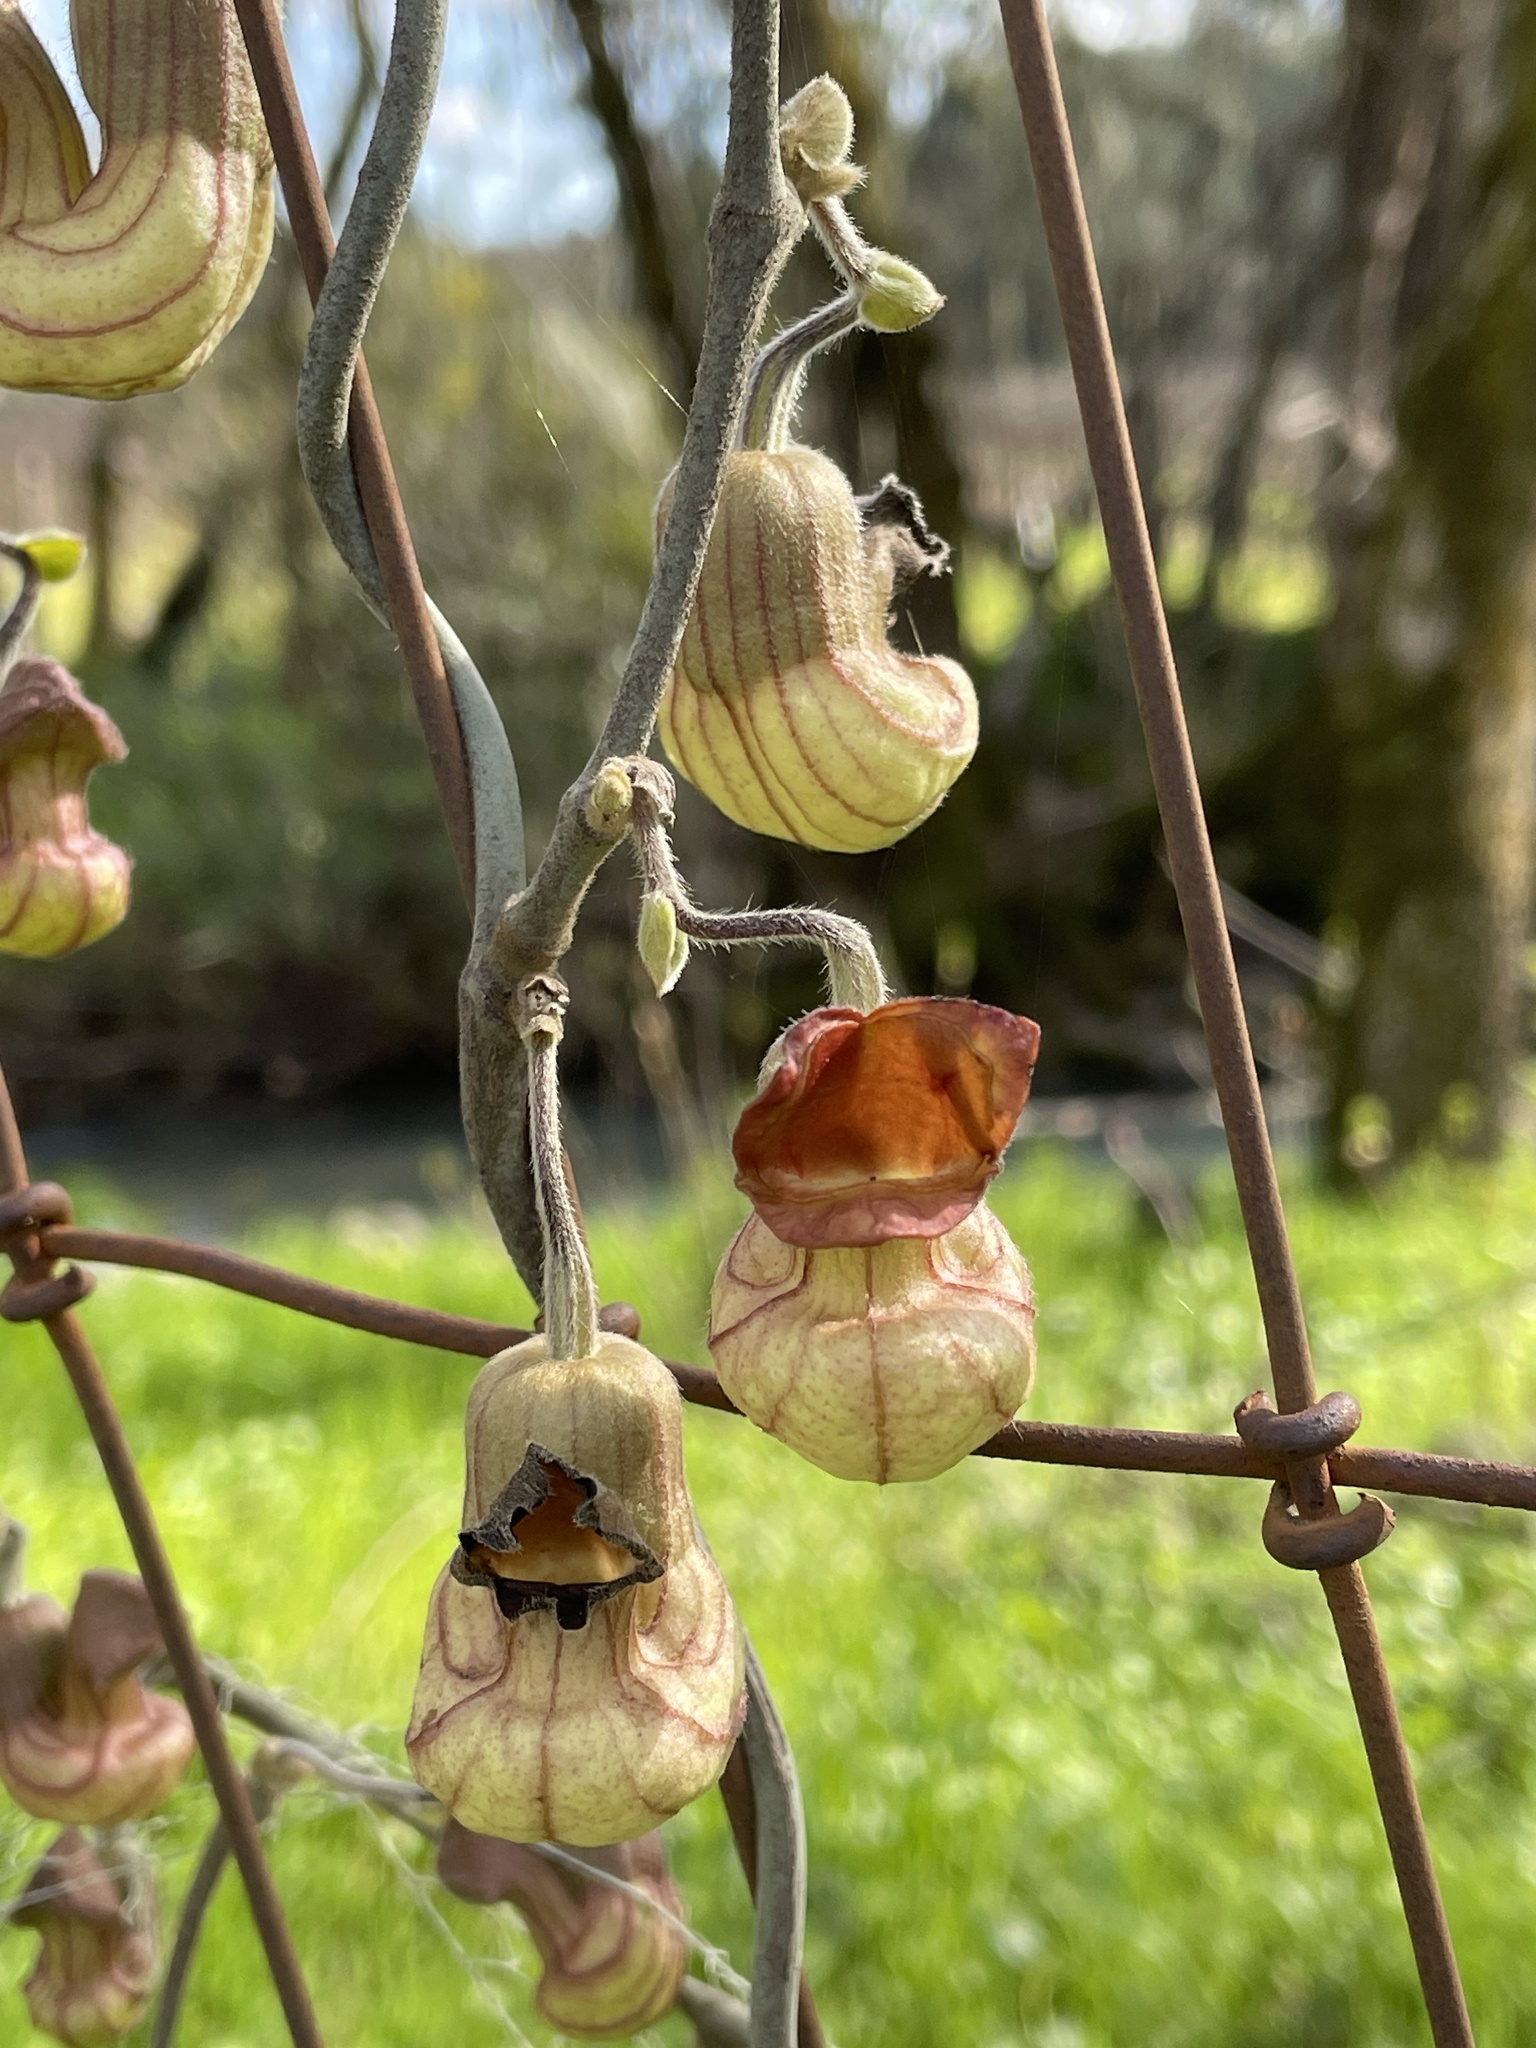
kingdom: Plantae
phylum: Tracheophyta
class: Magnoliopsida
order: Piperales
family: Aristolochiaceae
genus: Isotrema
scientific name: Isotrema californicum
